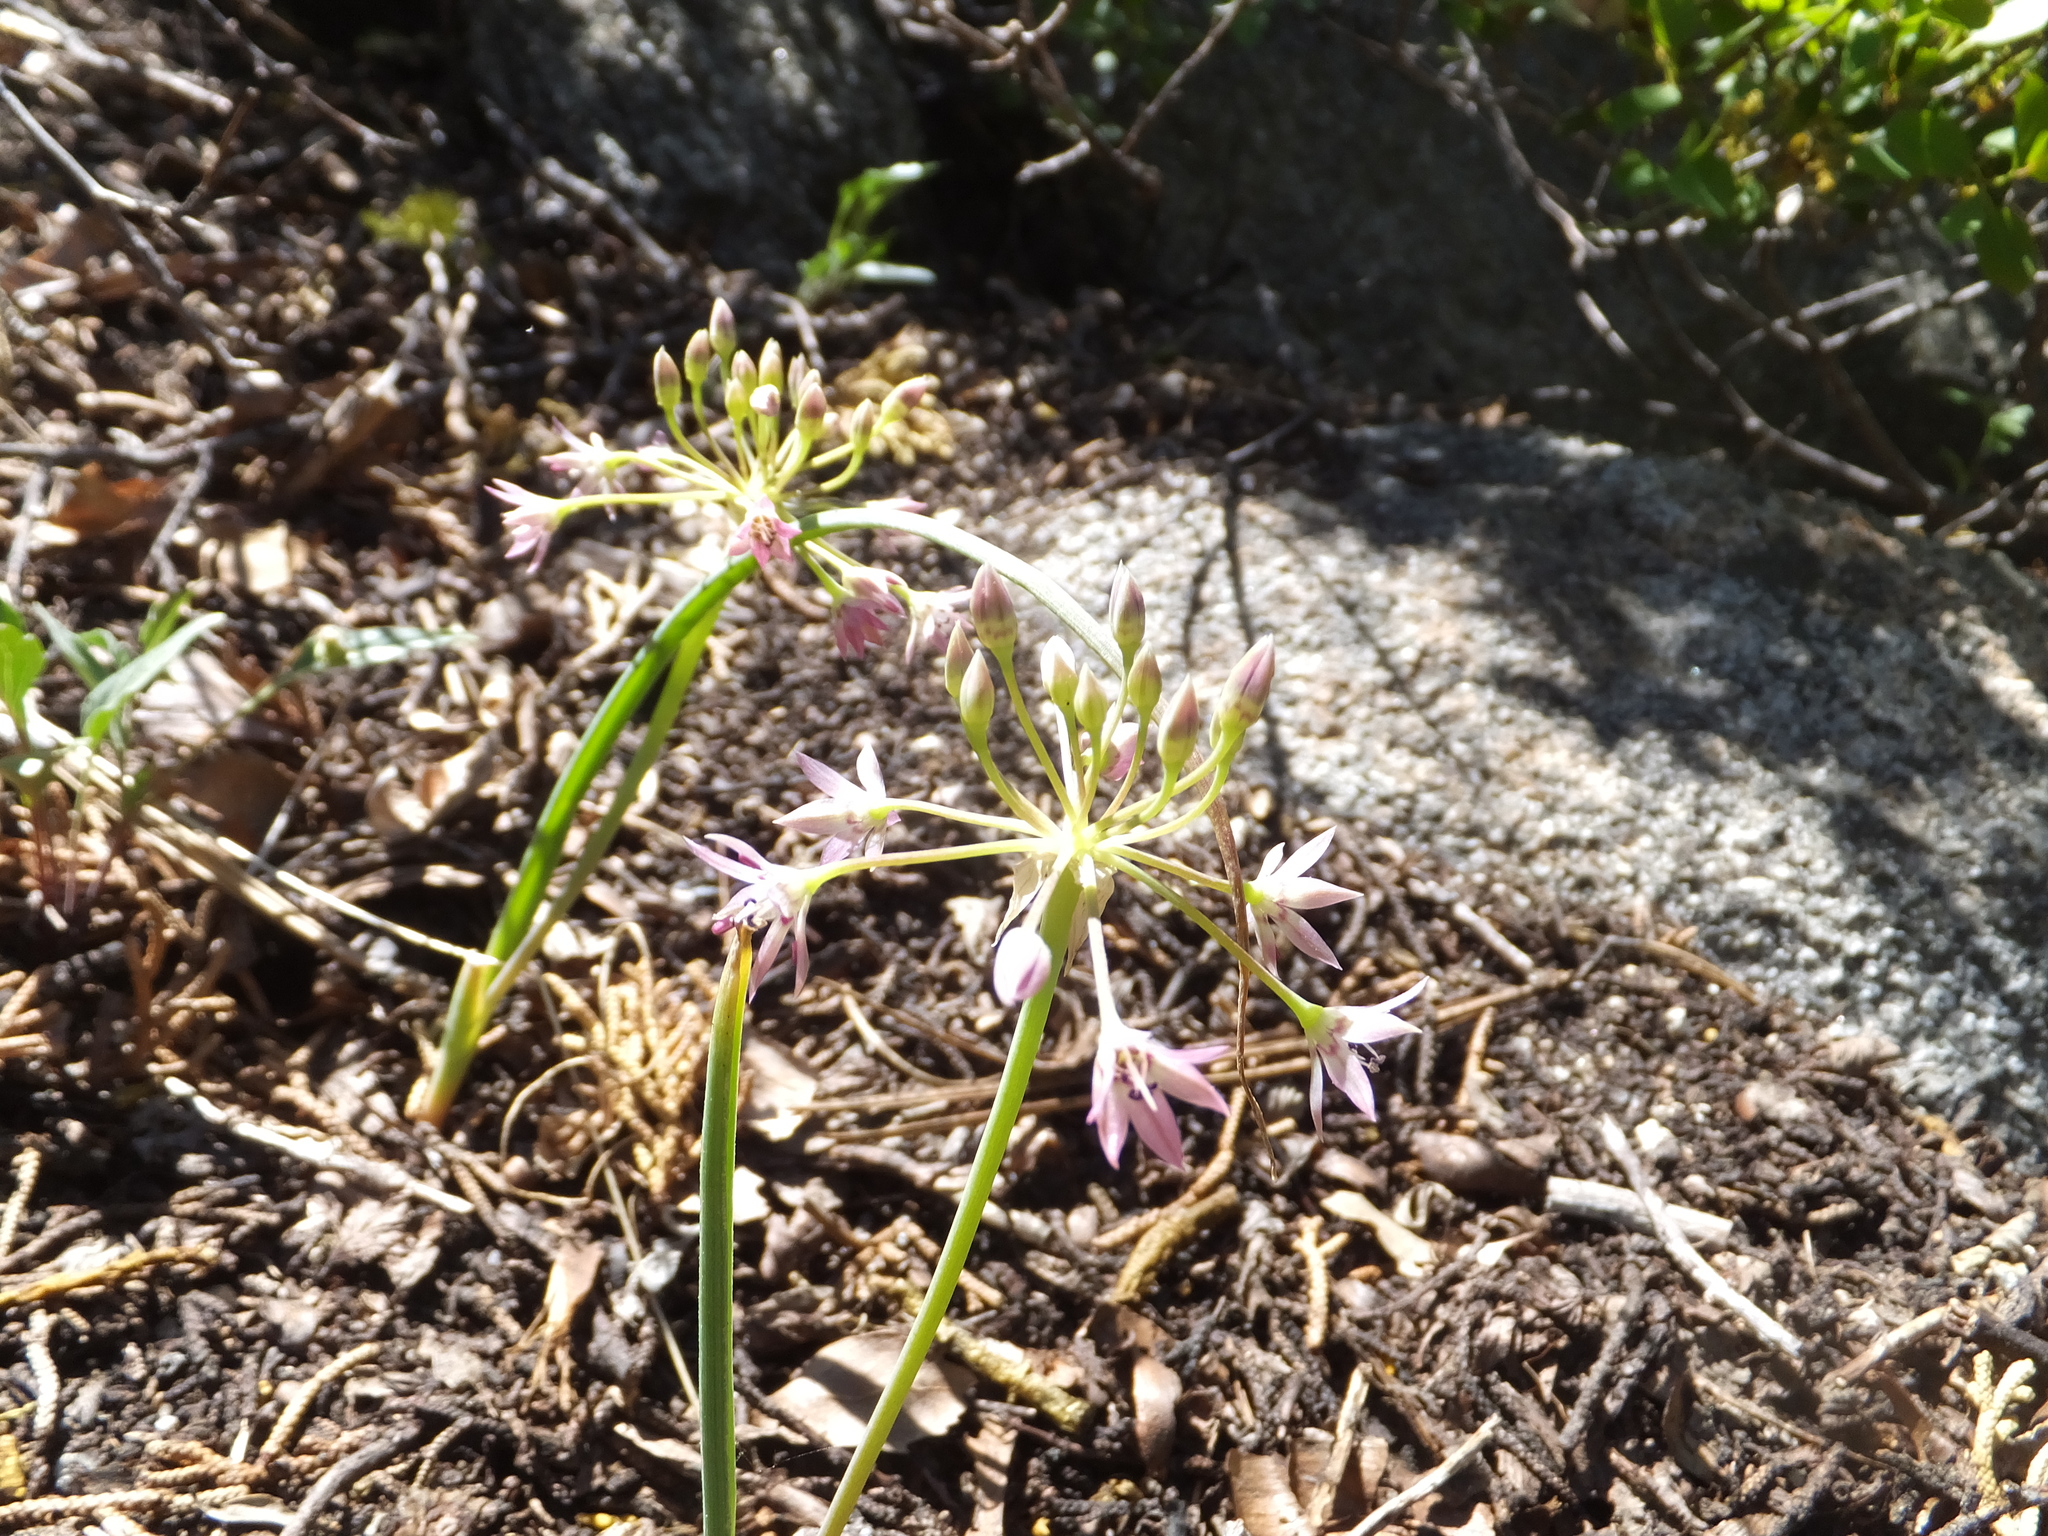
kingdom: Plantae
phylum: Tracheophyta
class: Liliopsida
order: Asparagales
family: Amaryllidaceae
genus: Allium
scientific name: Allium campanulatum
